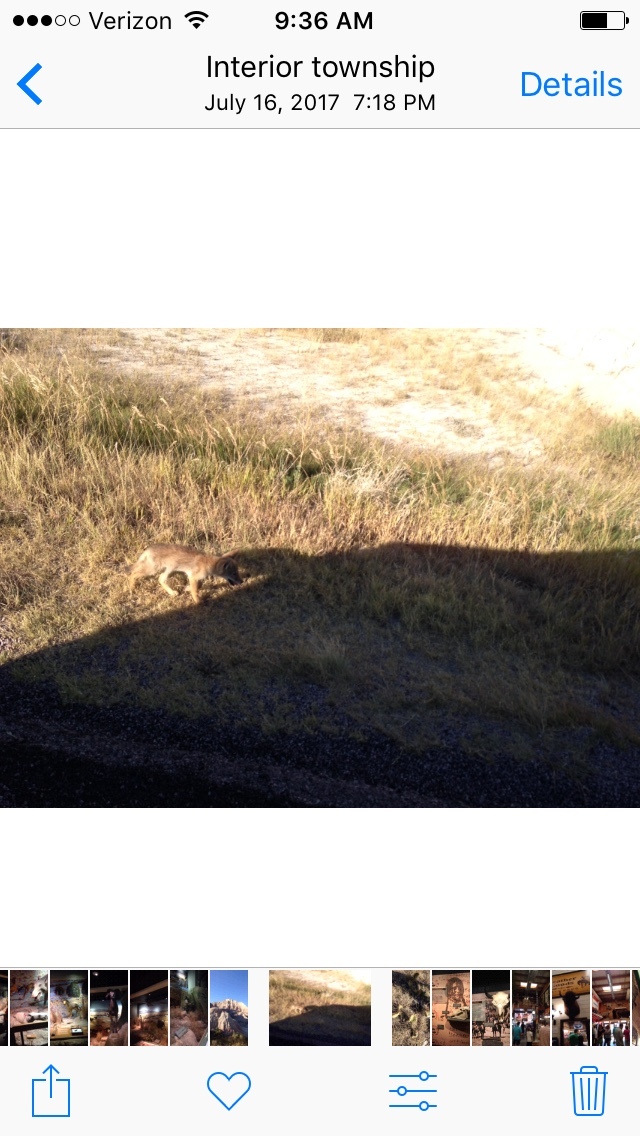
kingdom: Animalia
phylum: Chordata
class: Mammalia
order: Carnivora
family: Canidae
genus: Canis
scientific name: Canis latrans
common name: Coyote
